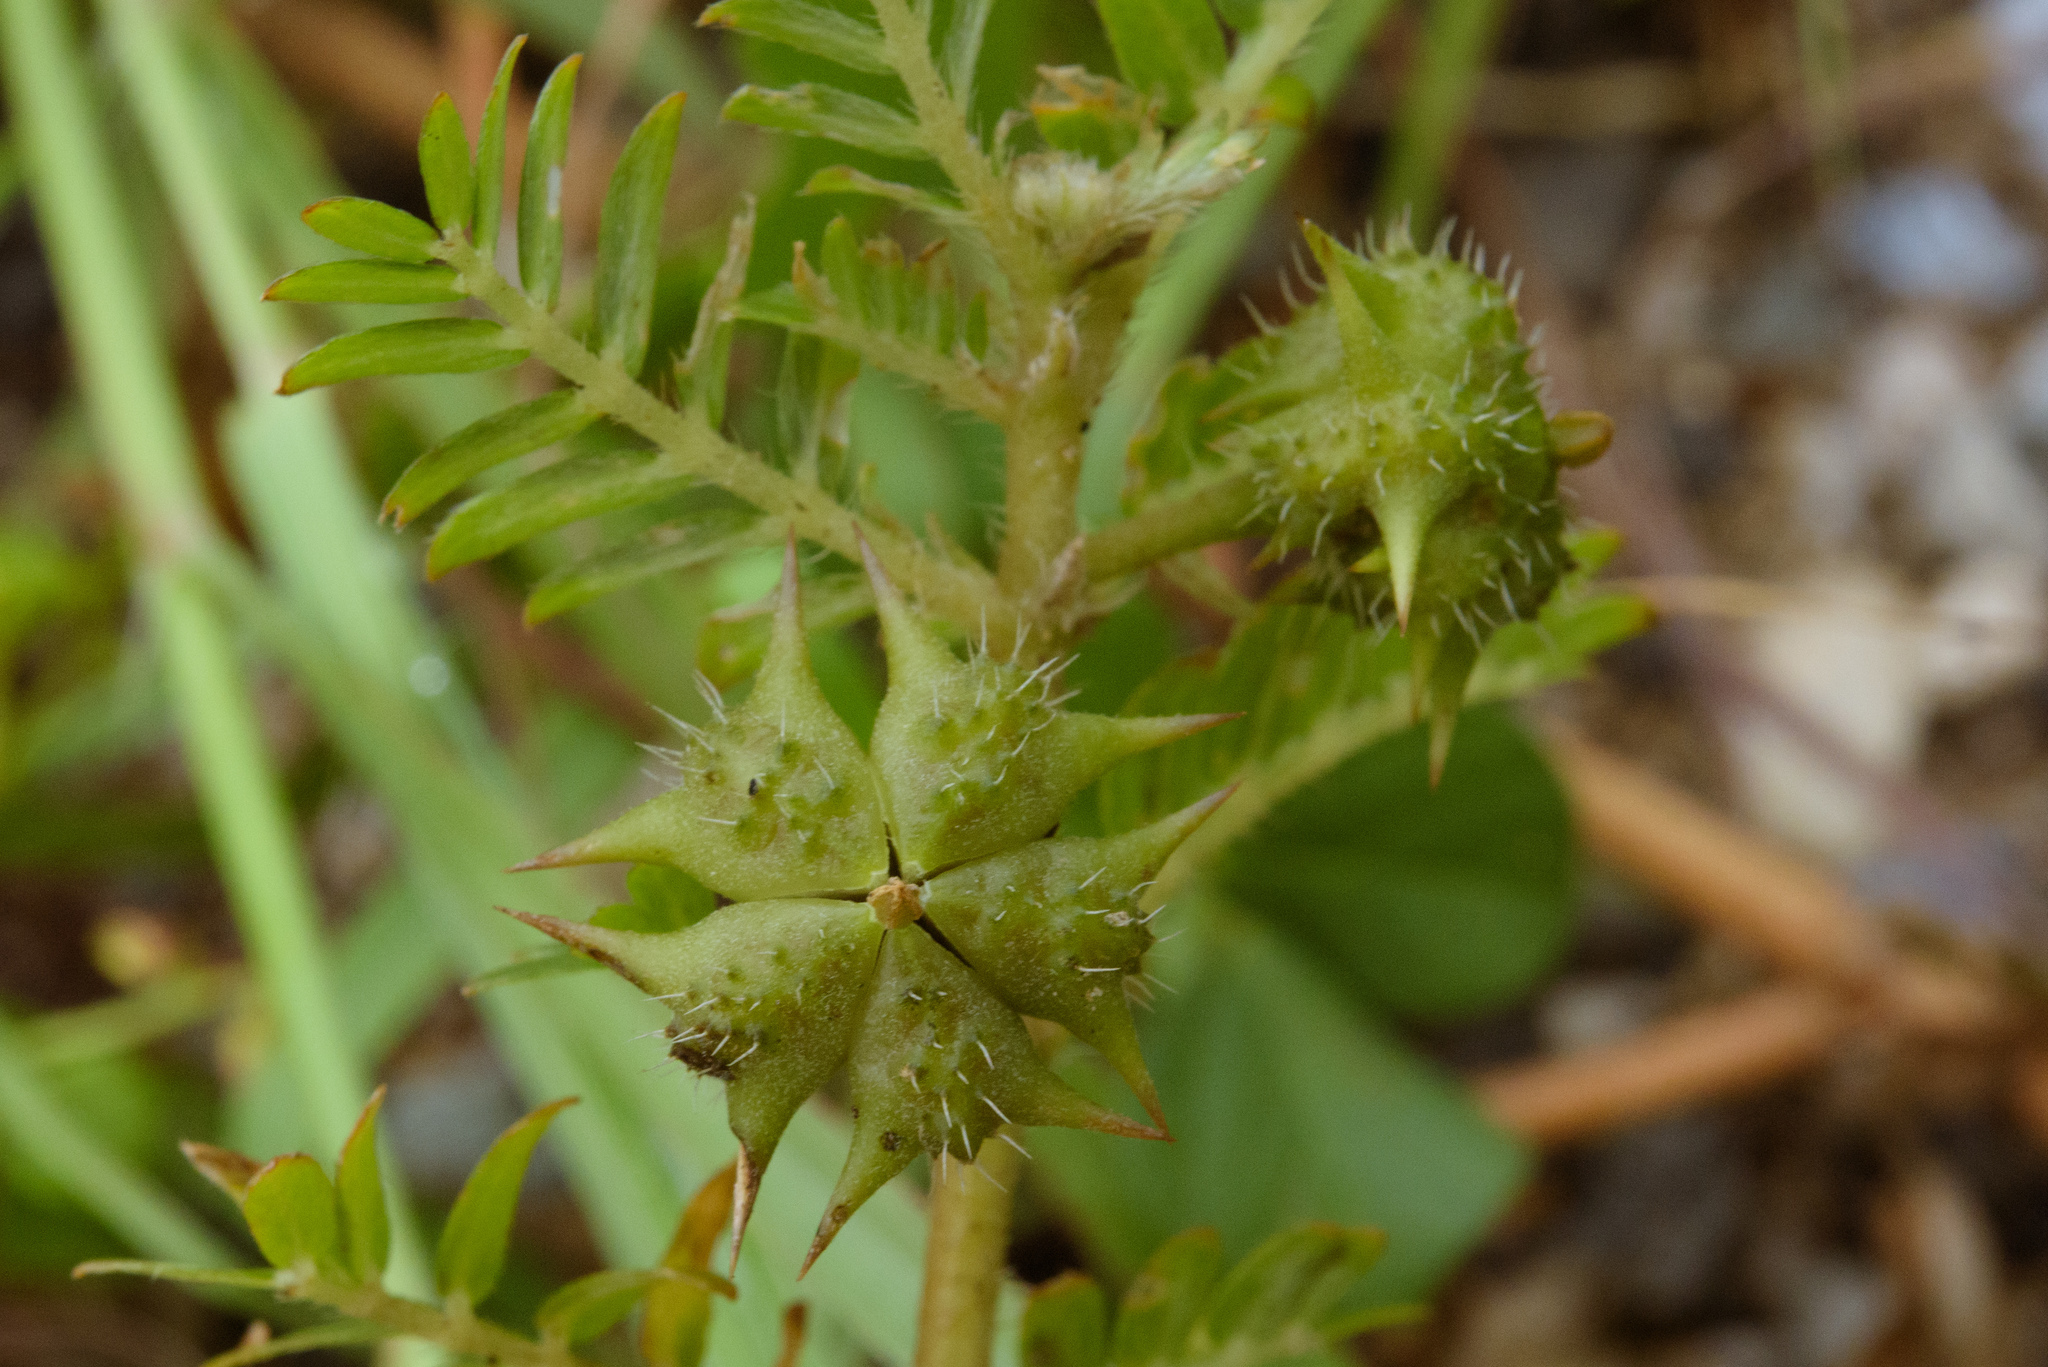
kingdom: Plantae
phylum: Tracheophyta
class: Magnoliopsida
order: Zygophyllales
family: Zygophyllaceae
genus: Tribulus
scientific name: Tribulus terrestris
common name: Puncturevine
